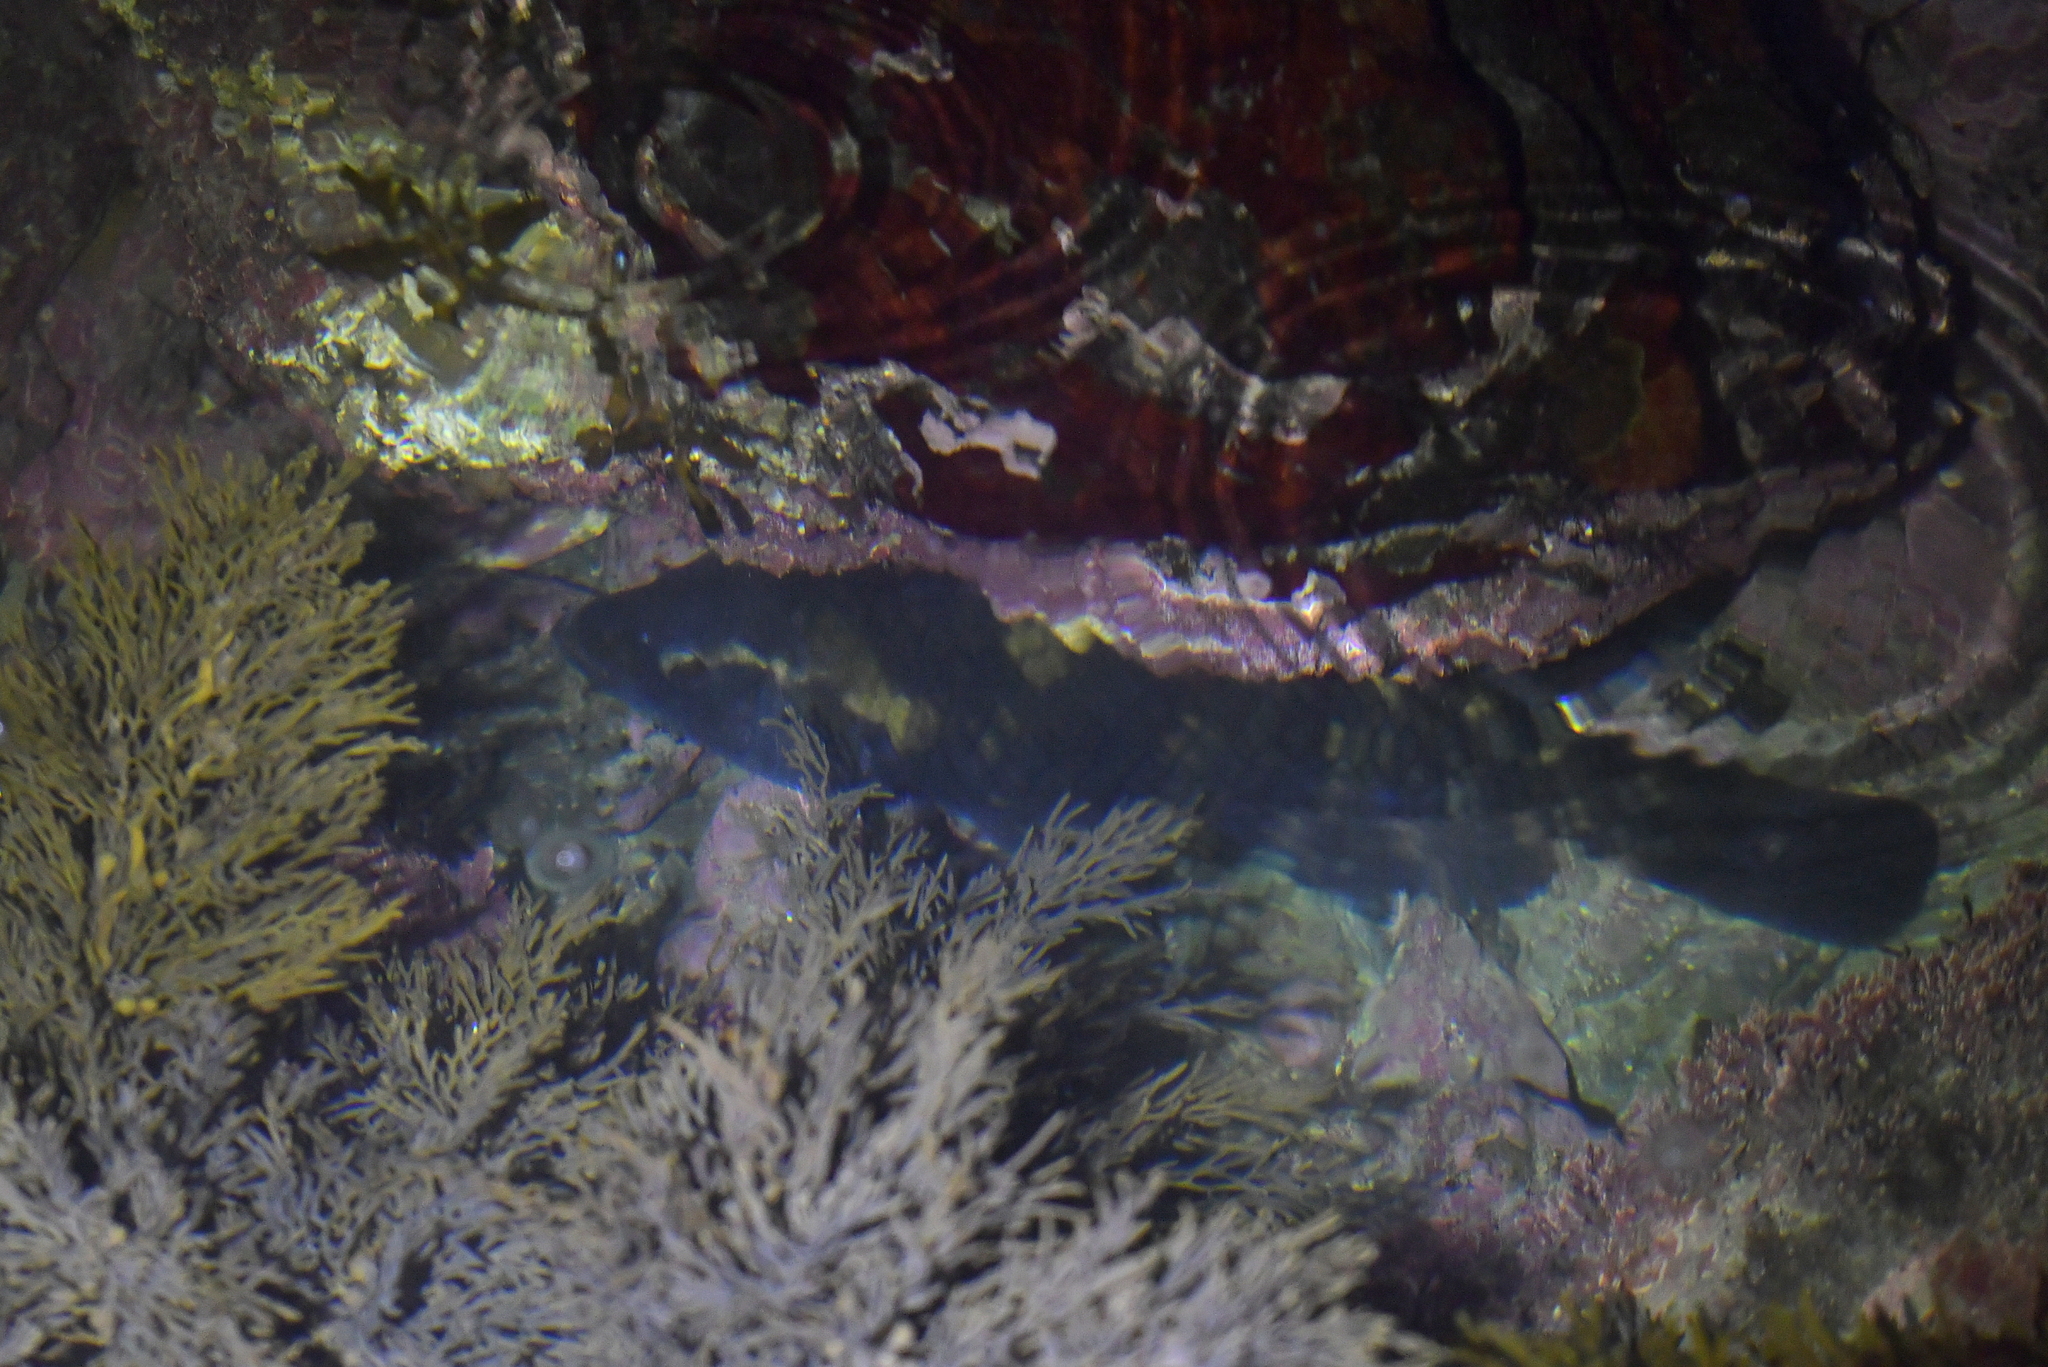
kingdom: Animalia
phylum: Chordata
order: Perciformes
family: Labridae
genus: Notolabrus
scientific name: Notolabrus fucicola
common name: Banded parrotfish
